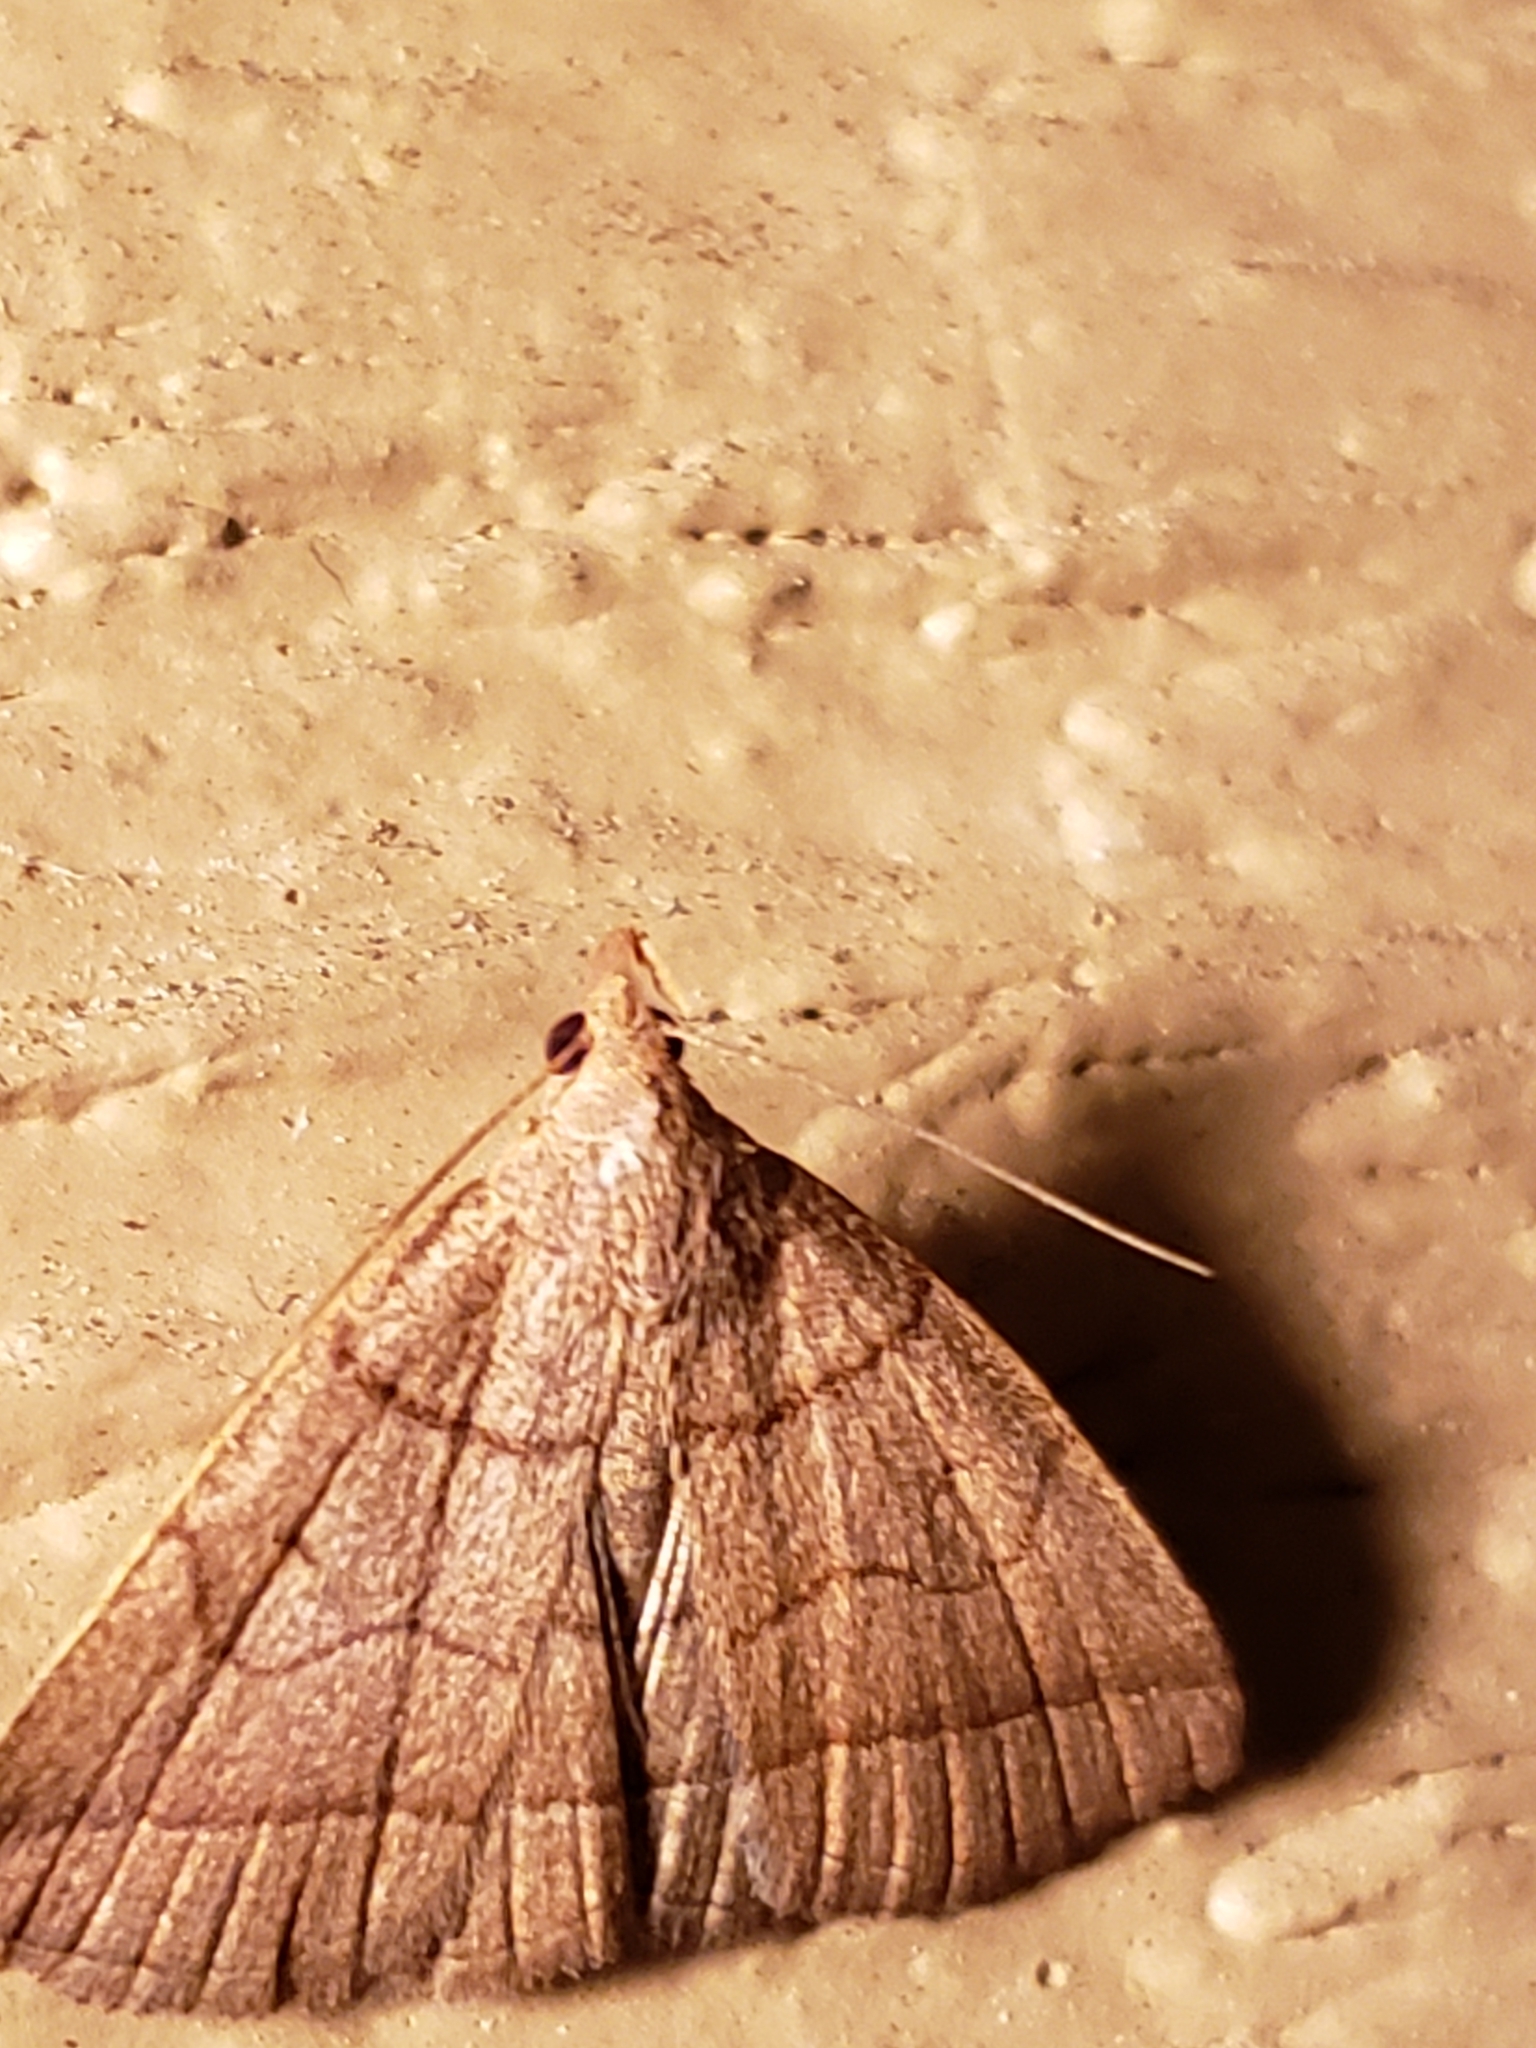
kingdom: Animalia
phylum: Arthropoda
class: Insecta
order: Lepidoptera
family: Erebidae
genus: Zanclognatha
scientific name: Zanclognatha cruralis
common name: Early fan-foot
